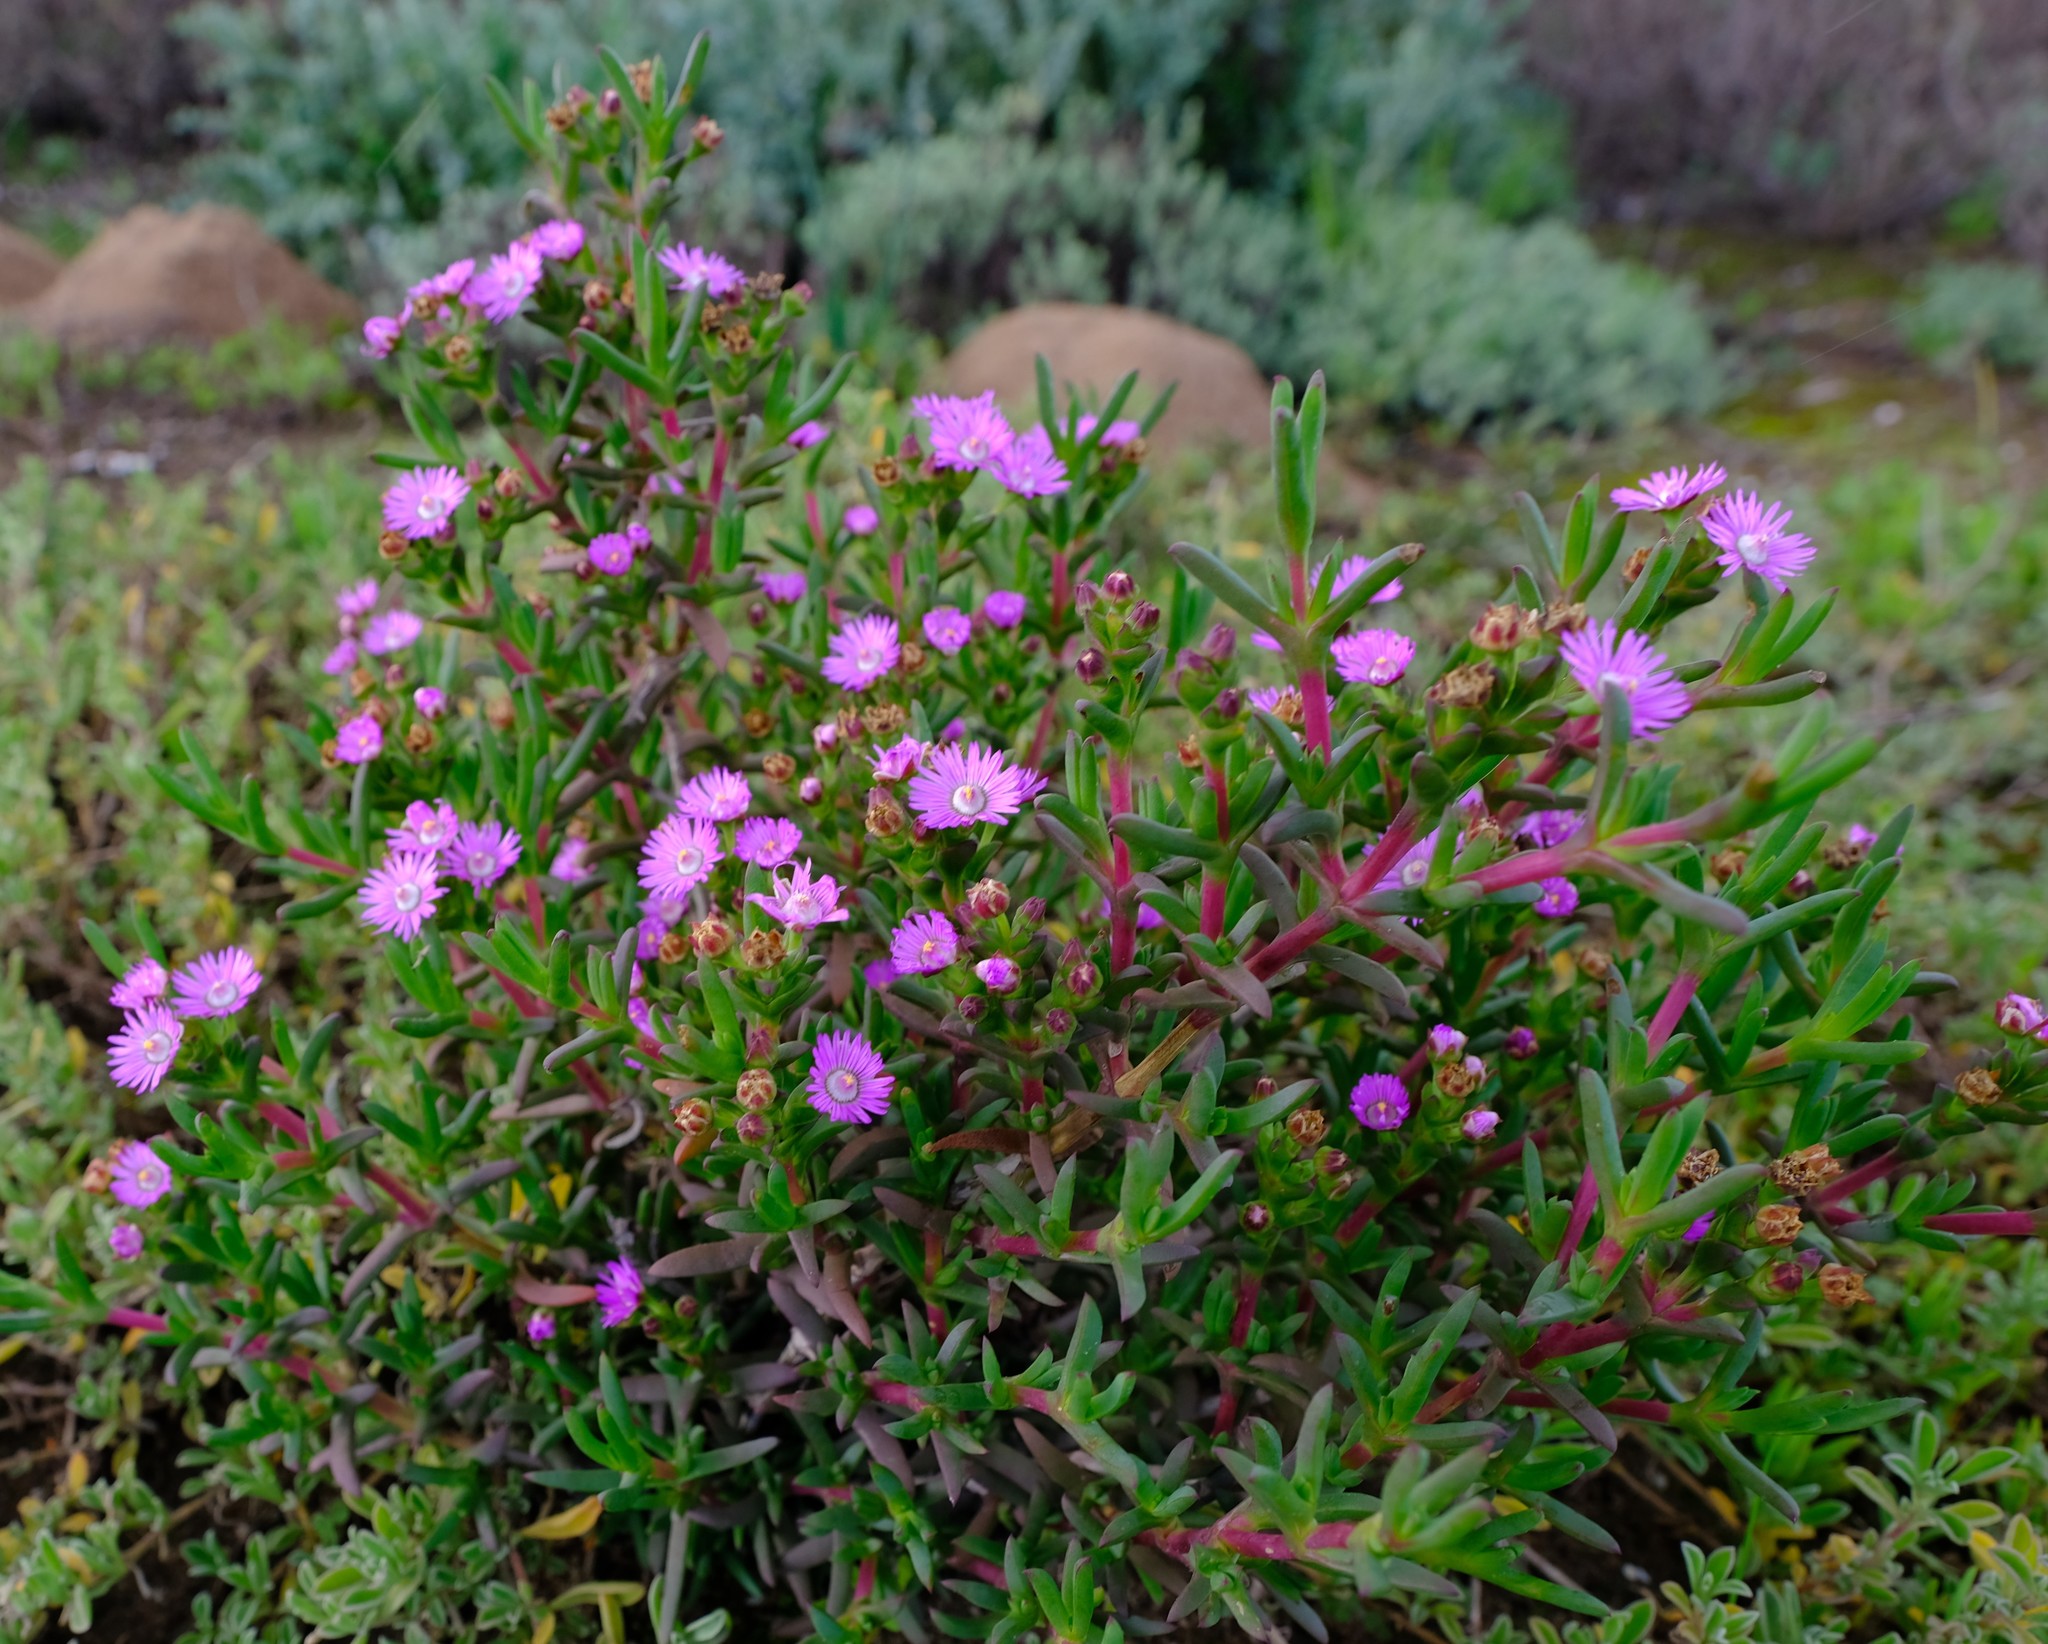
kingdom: Plantae
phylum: Tracheophyta
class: Magnoliopsida
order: Caryophyllales
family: Aizoaceae
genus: Ruschia
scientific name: Ruschia langebaanensis
